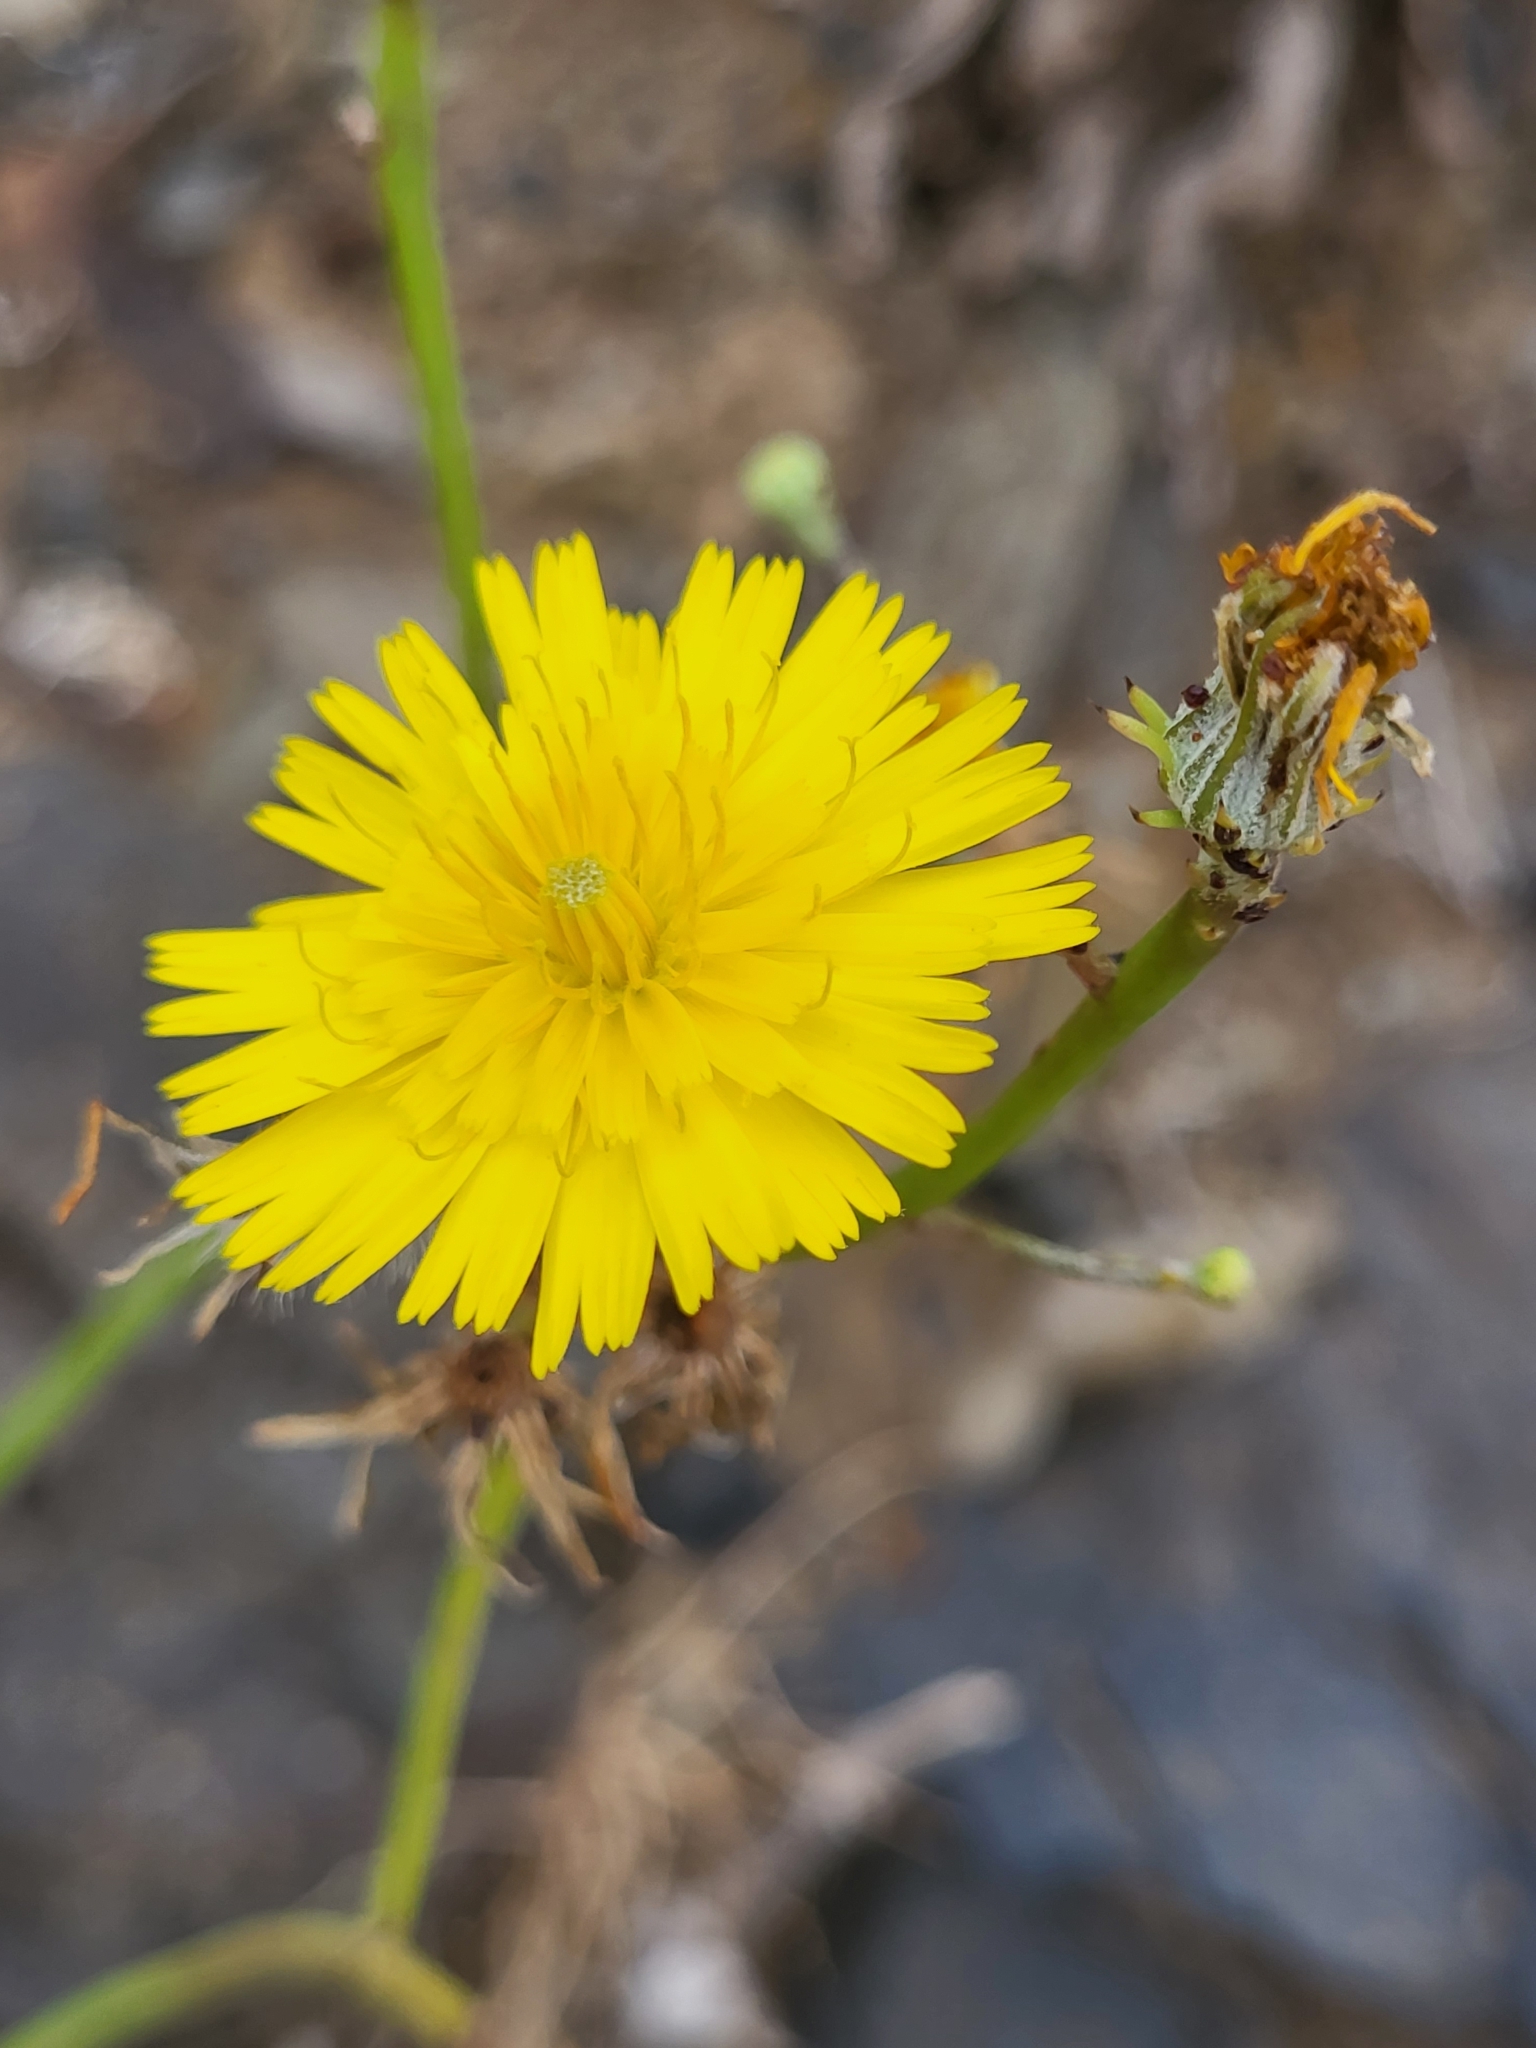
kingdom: Plantae
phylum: Tracheophyta
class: Magnoliopsida
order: Asterales
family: Asteraceae
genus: Tolpis
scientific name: Tolpis succulenta
